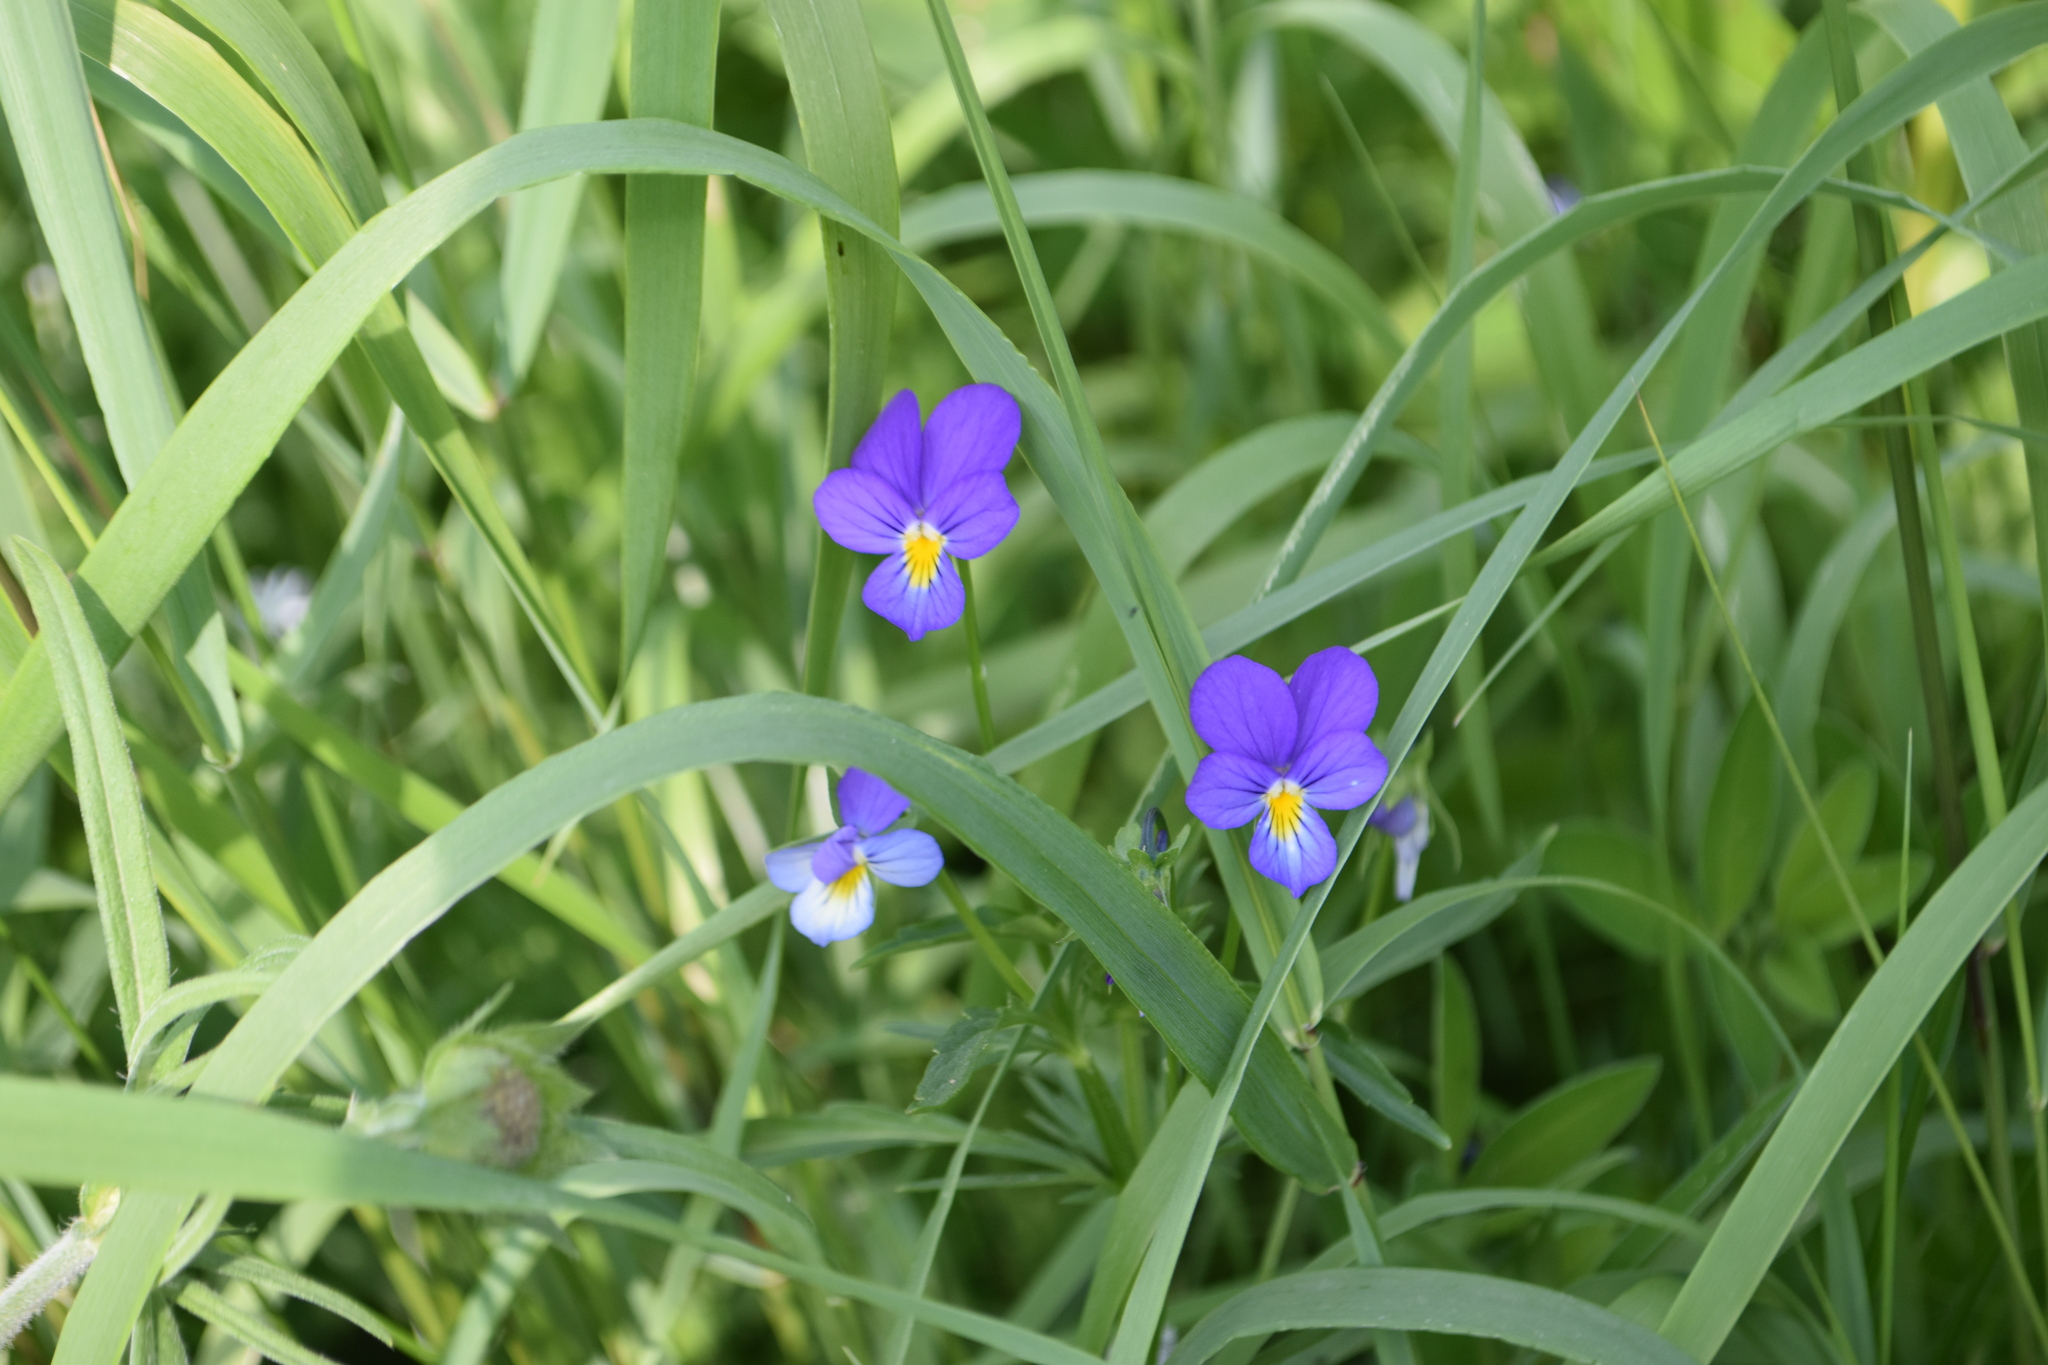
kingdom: Plantae
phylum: Tracheophyta
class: Magnoliopsida
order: Malpighiales
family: Violaceae
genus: Viola
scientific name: Viola tricolor
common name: Pansy
